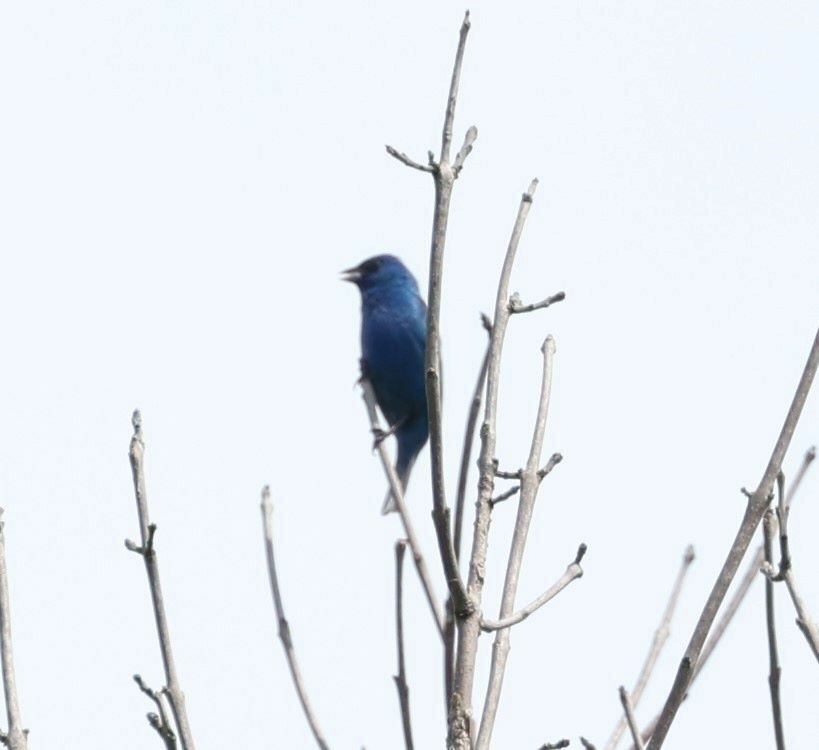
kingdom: Animalia
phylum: Chordata
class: Aves
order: Passeriformes
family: Cardinalidae
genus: Passerina
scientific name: Passerina cyanea
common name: Indigo bunting
